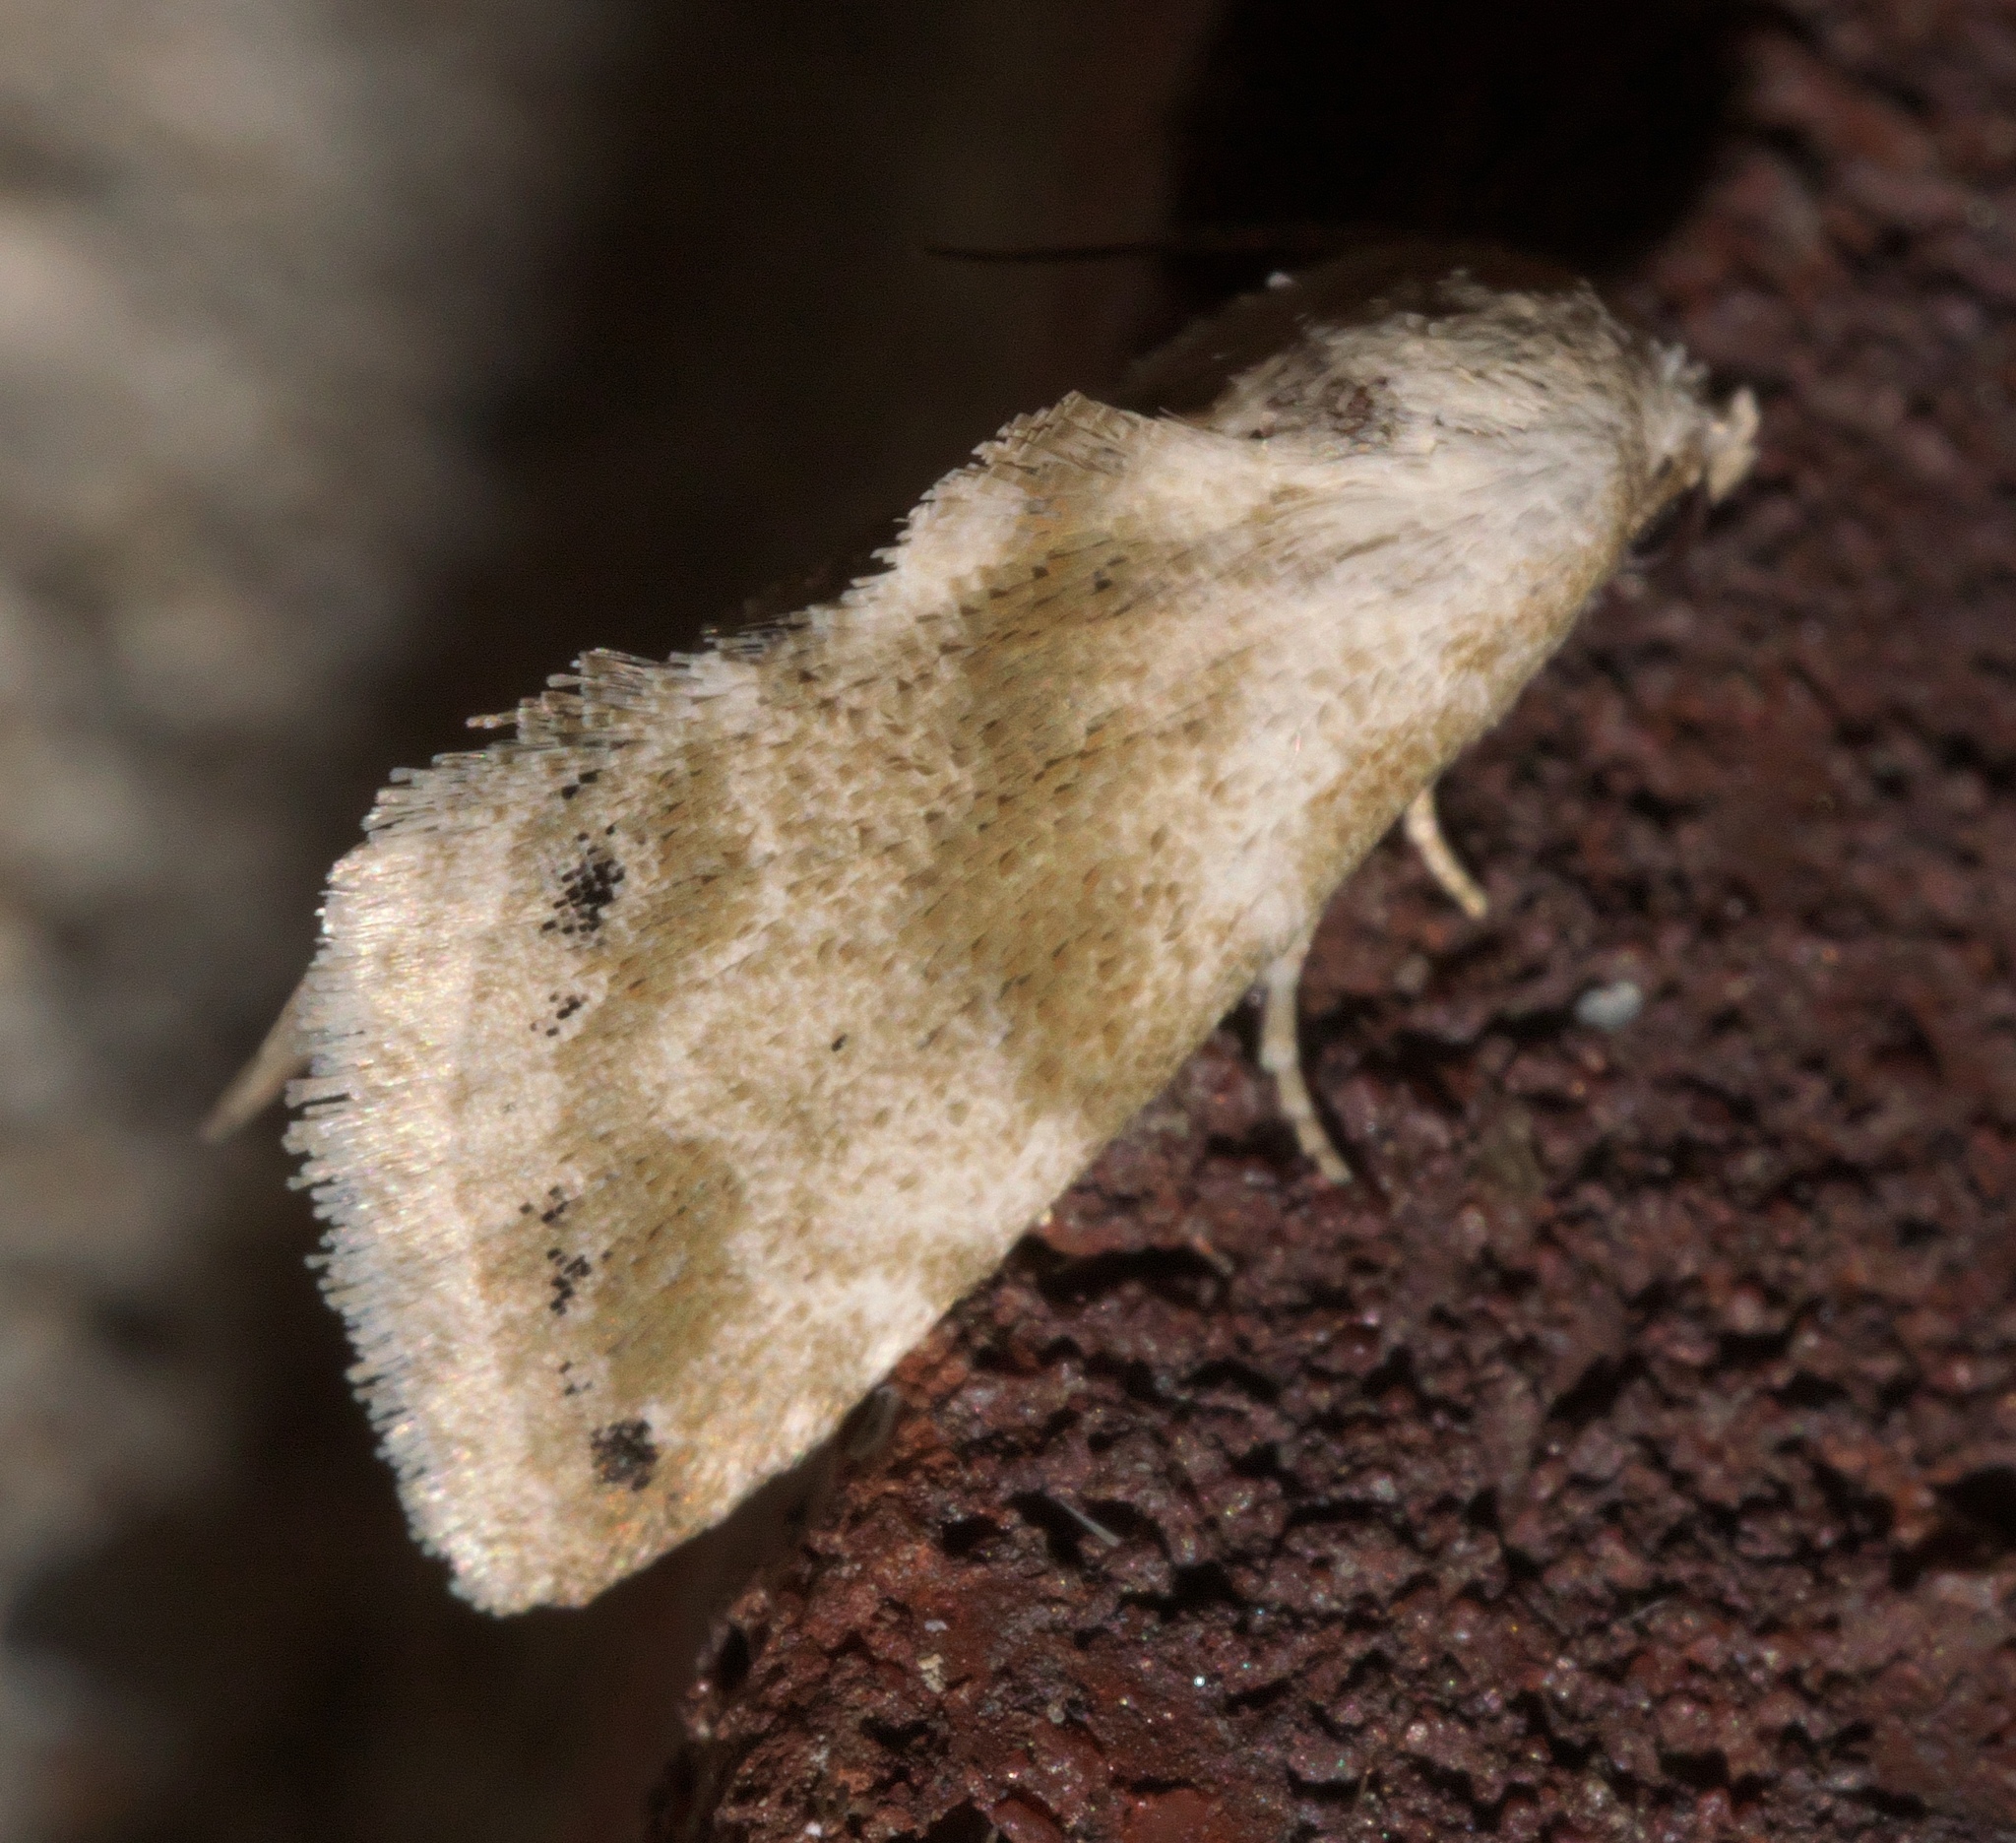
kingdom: Animalia
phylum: Arthropoda
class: Insecta
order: Lepidoptera
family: Noctuidae
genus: Eublemma
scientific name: Eublemma minima
